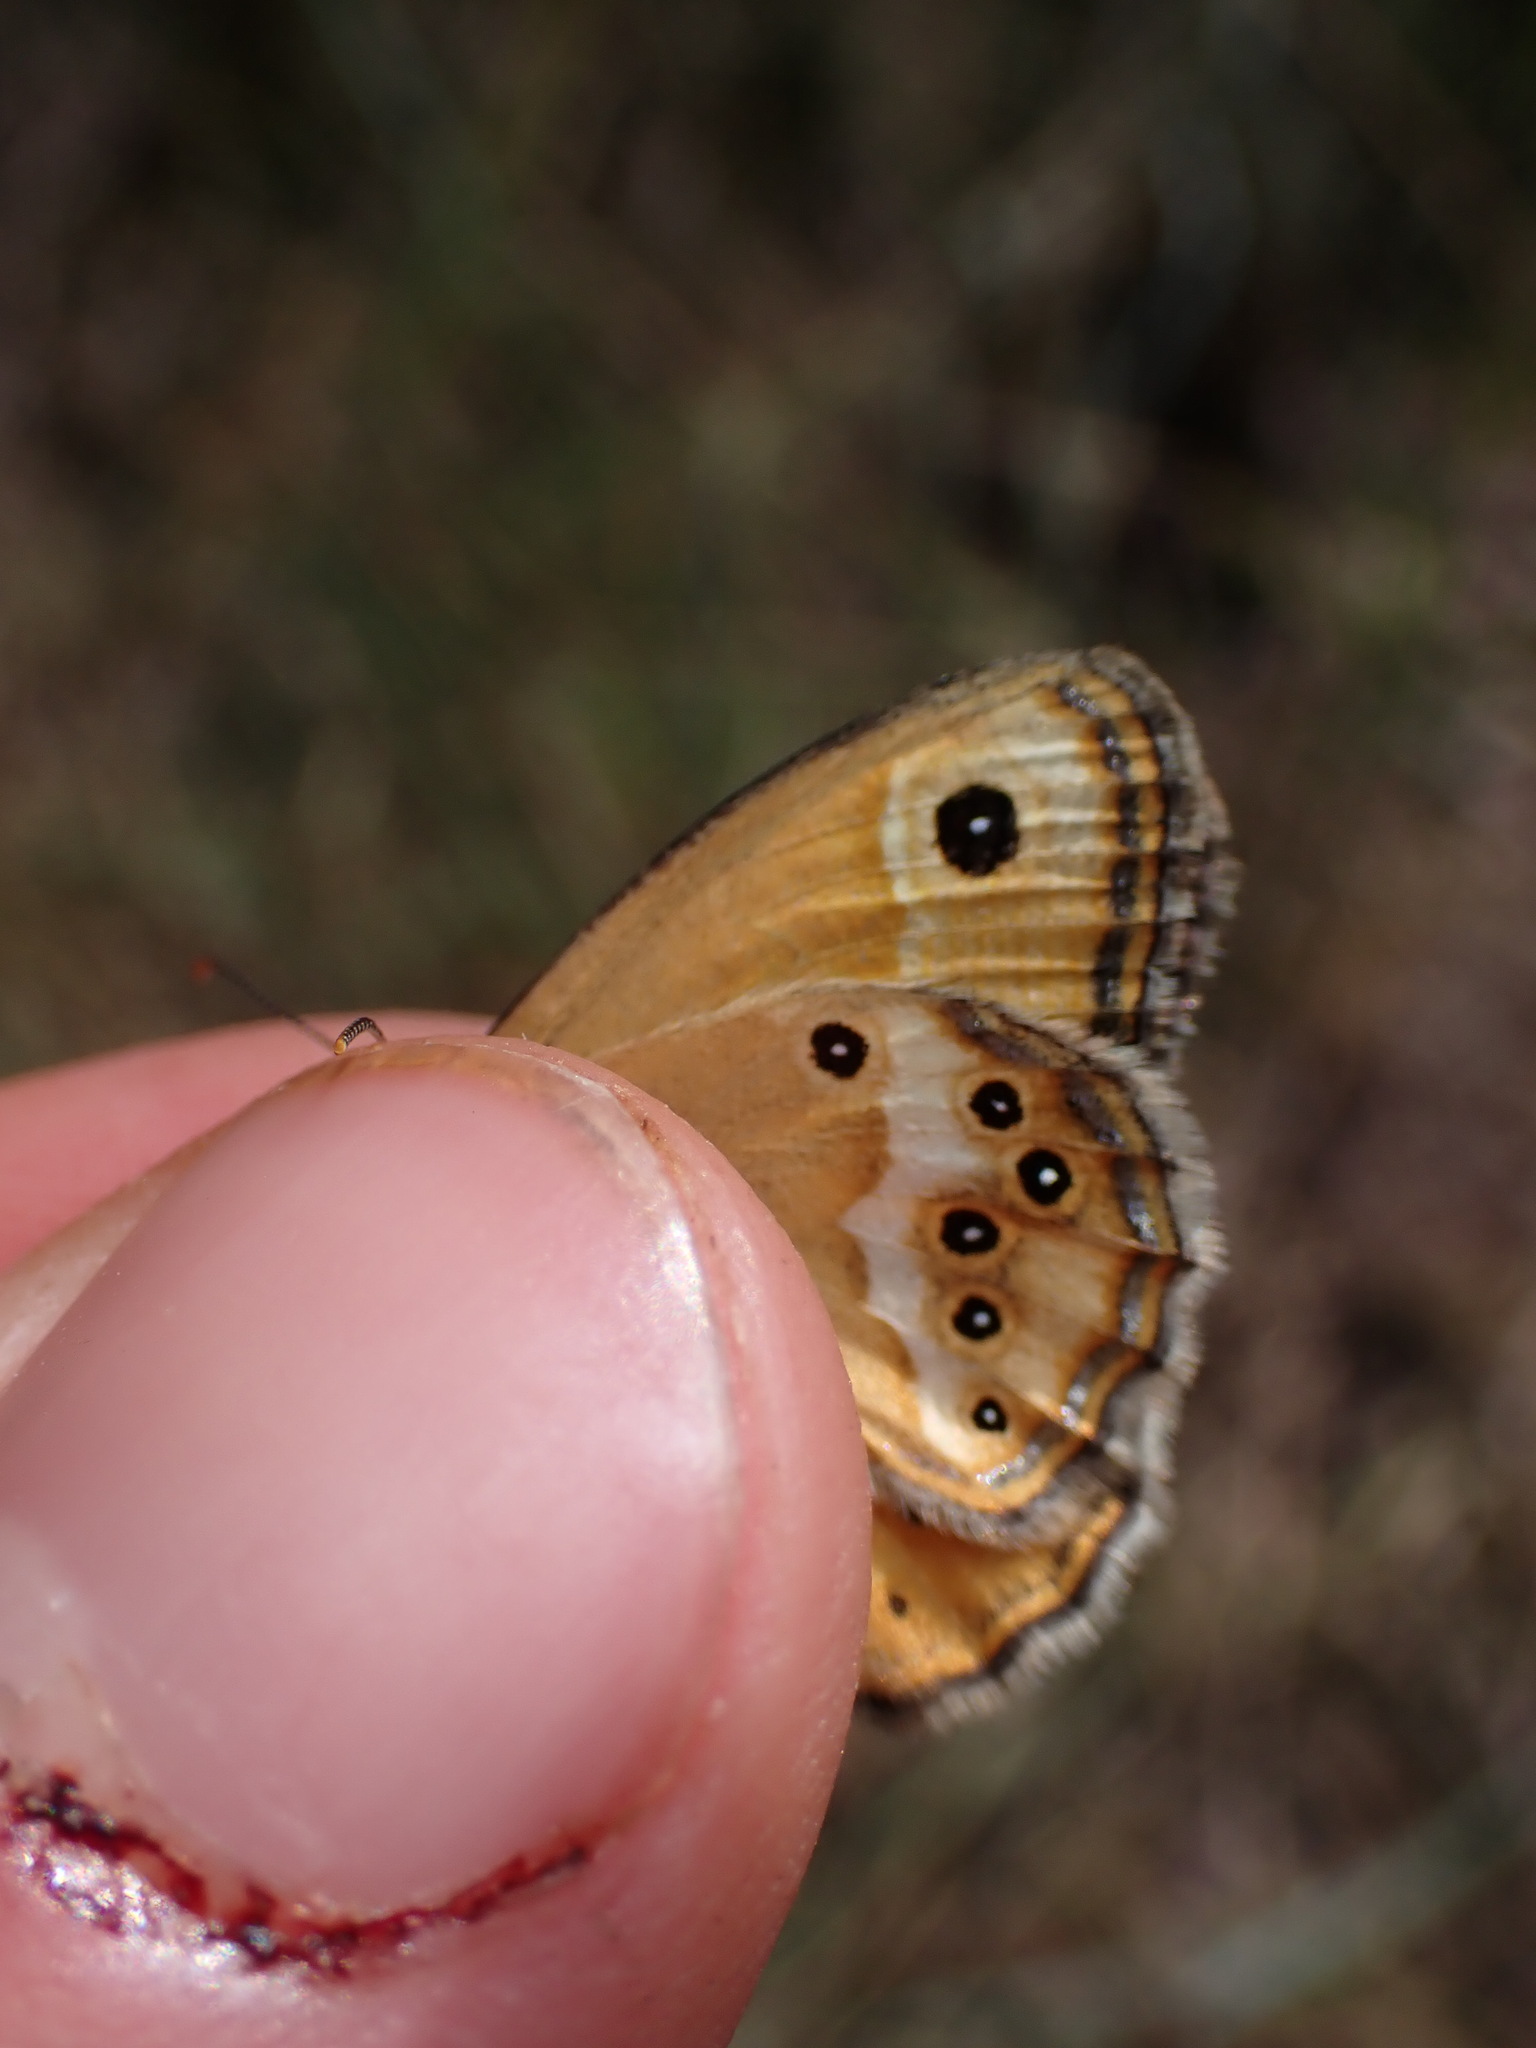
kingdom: Animalia
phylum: Arthropoda
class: Insecta
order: Lepidoptera
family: Nymphalidae
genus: Coenonympha
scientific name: Coenonympha dorus
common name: Dusky heath
